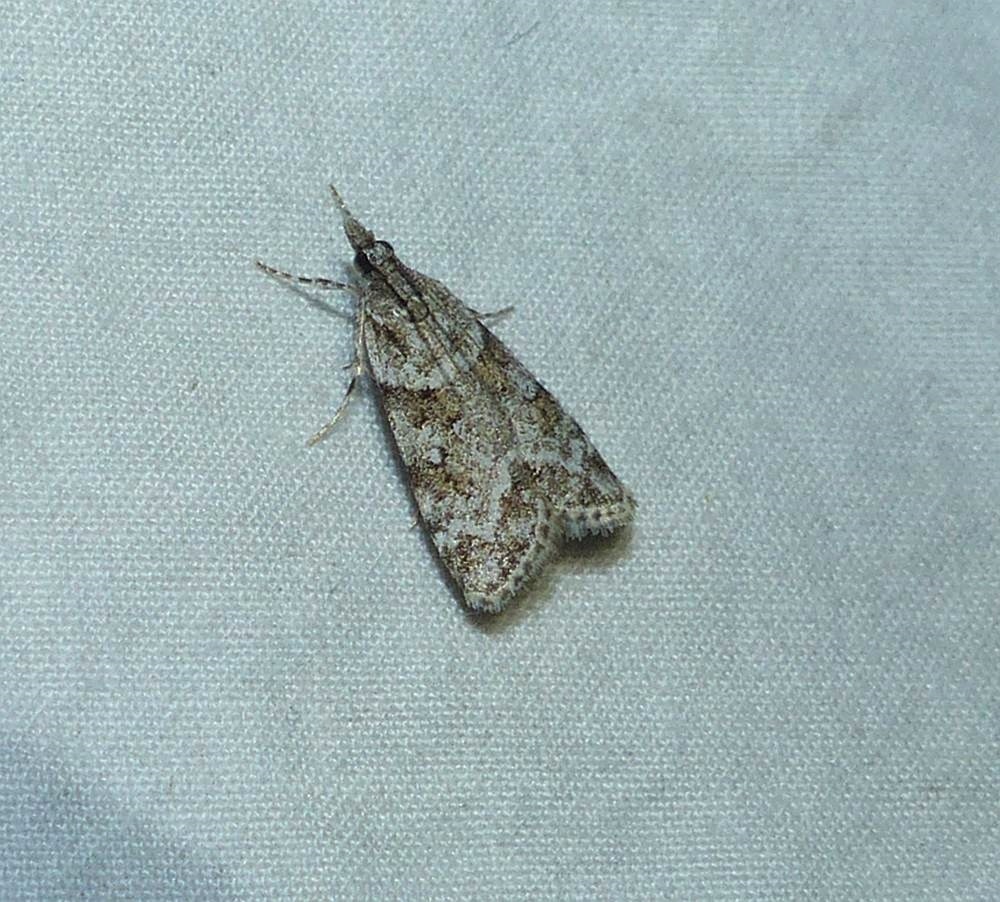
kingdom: Animalia
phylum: Arthropoda
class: Insecta
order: Lepidoptera
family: Crambidae
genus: Scoparia
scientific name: Scoparia biplagialis
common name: Double-striped scoparia moth
